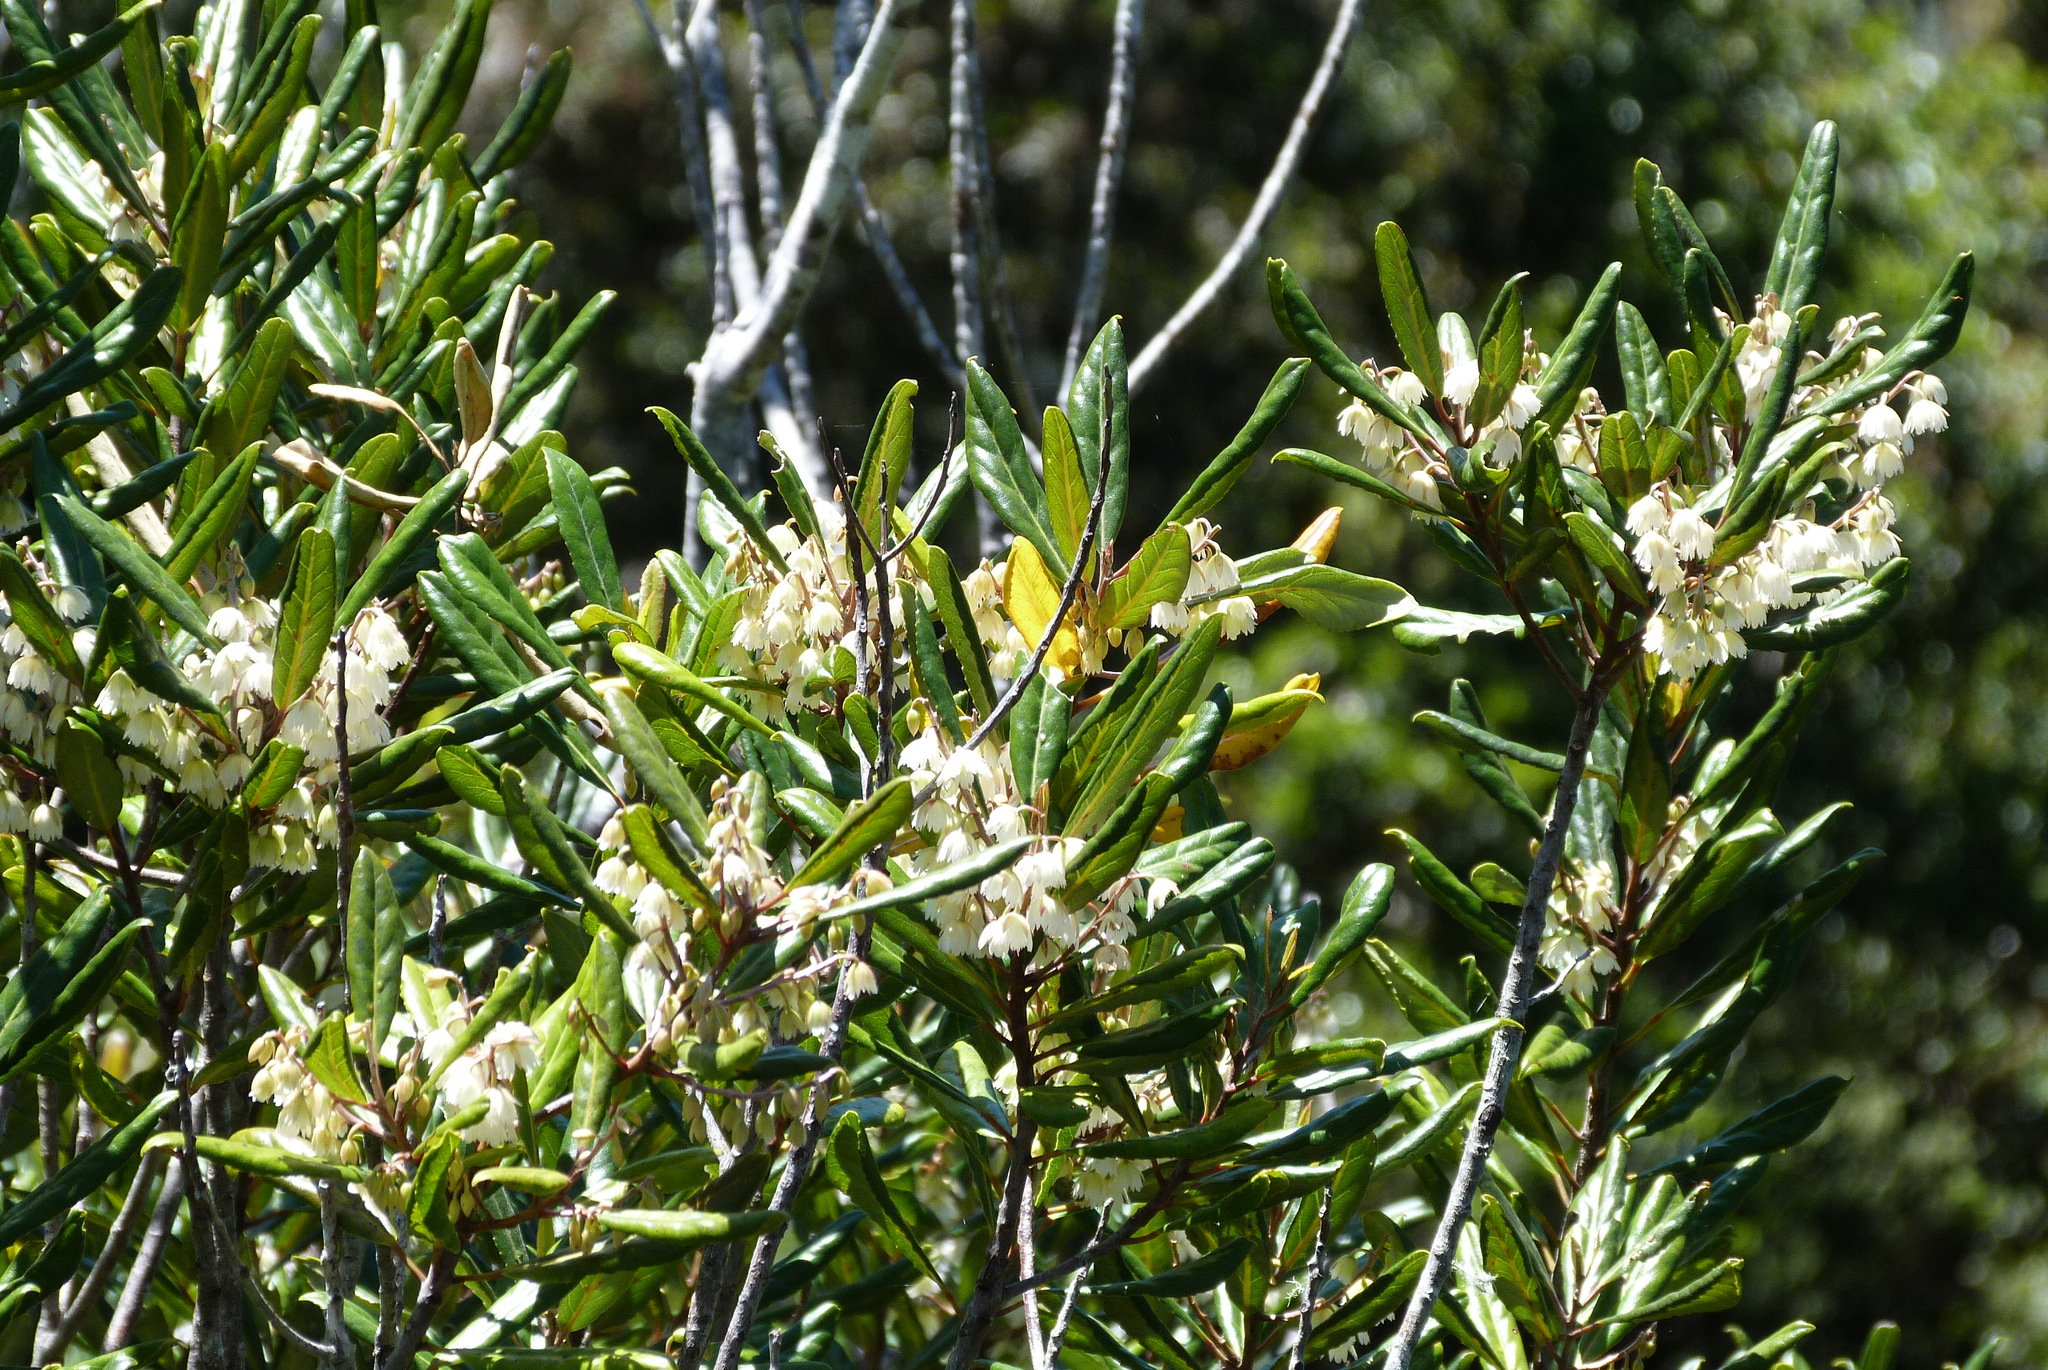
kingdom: Plantae
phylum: Tracheophyta
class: Magnoliopsida
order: Oxalidales
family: Elaeocarpaceae
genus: Elaeocarpus
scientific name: Elaeocarpus dentatus
